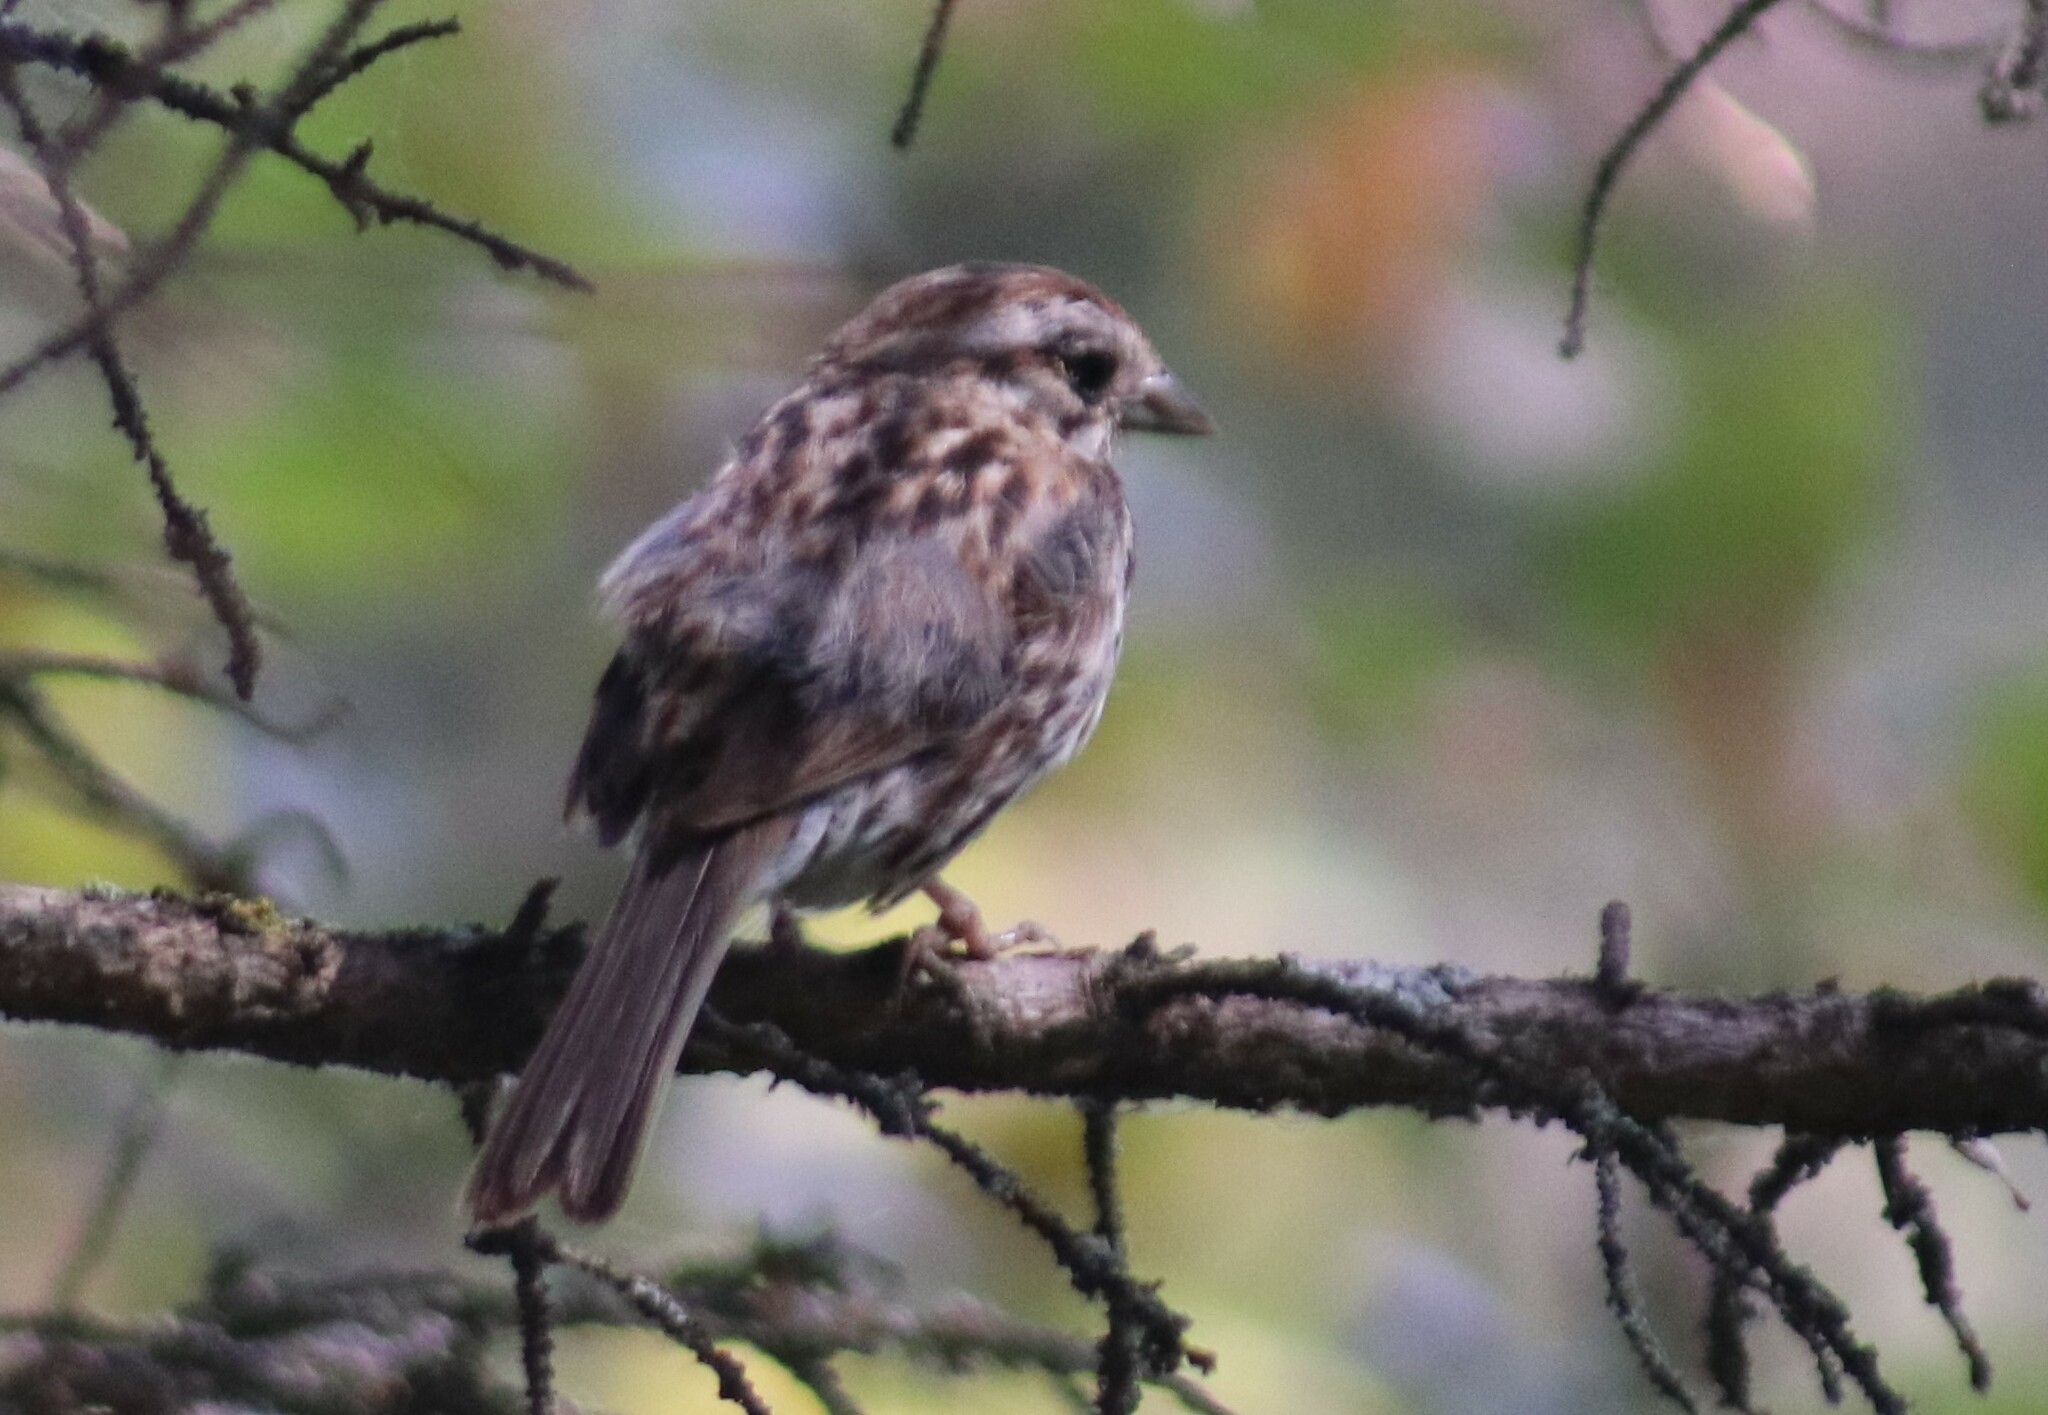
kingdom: Animalia
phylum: Chordata
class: Aves
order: Passeriformes
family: Passerellidae
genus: Melospiza
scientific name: Melospiza melodia
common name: Song sparrow
